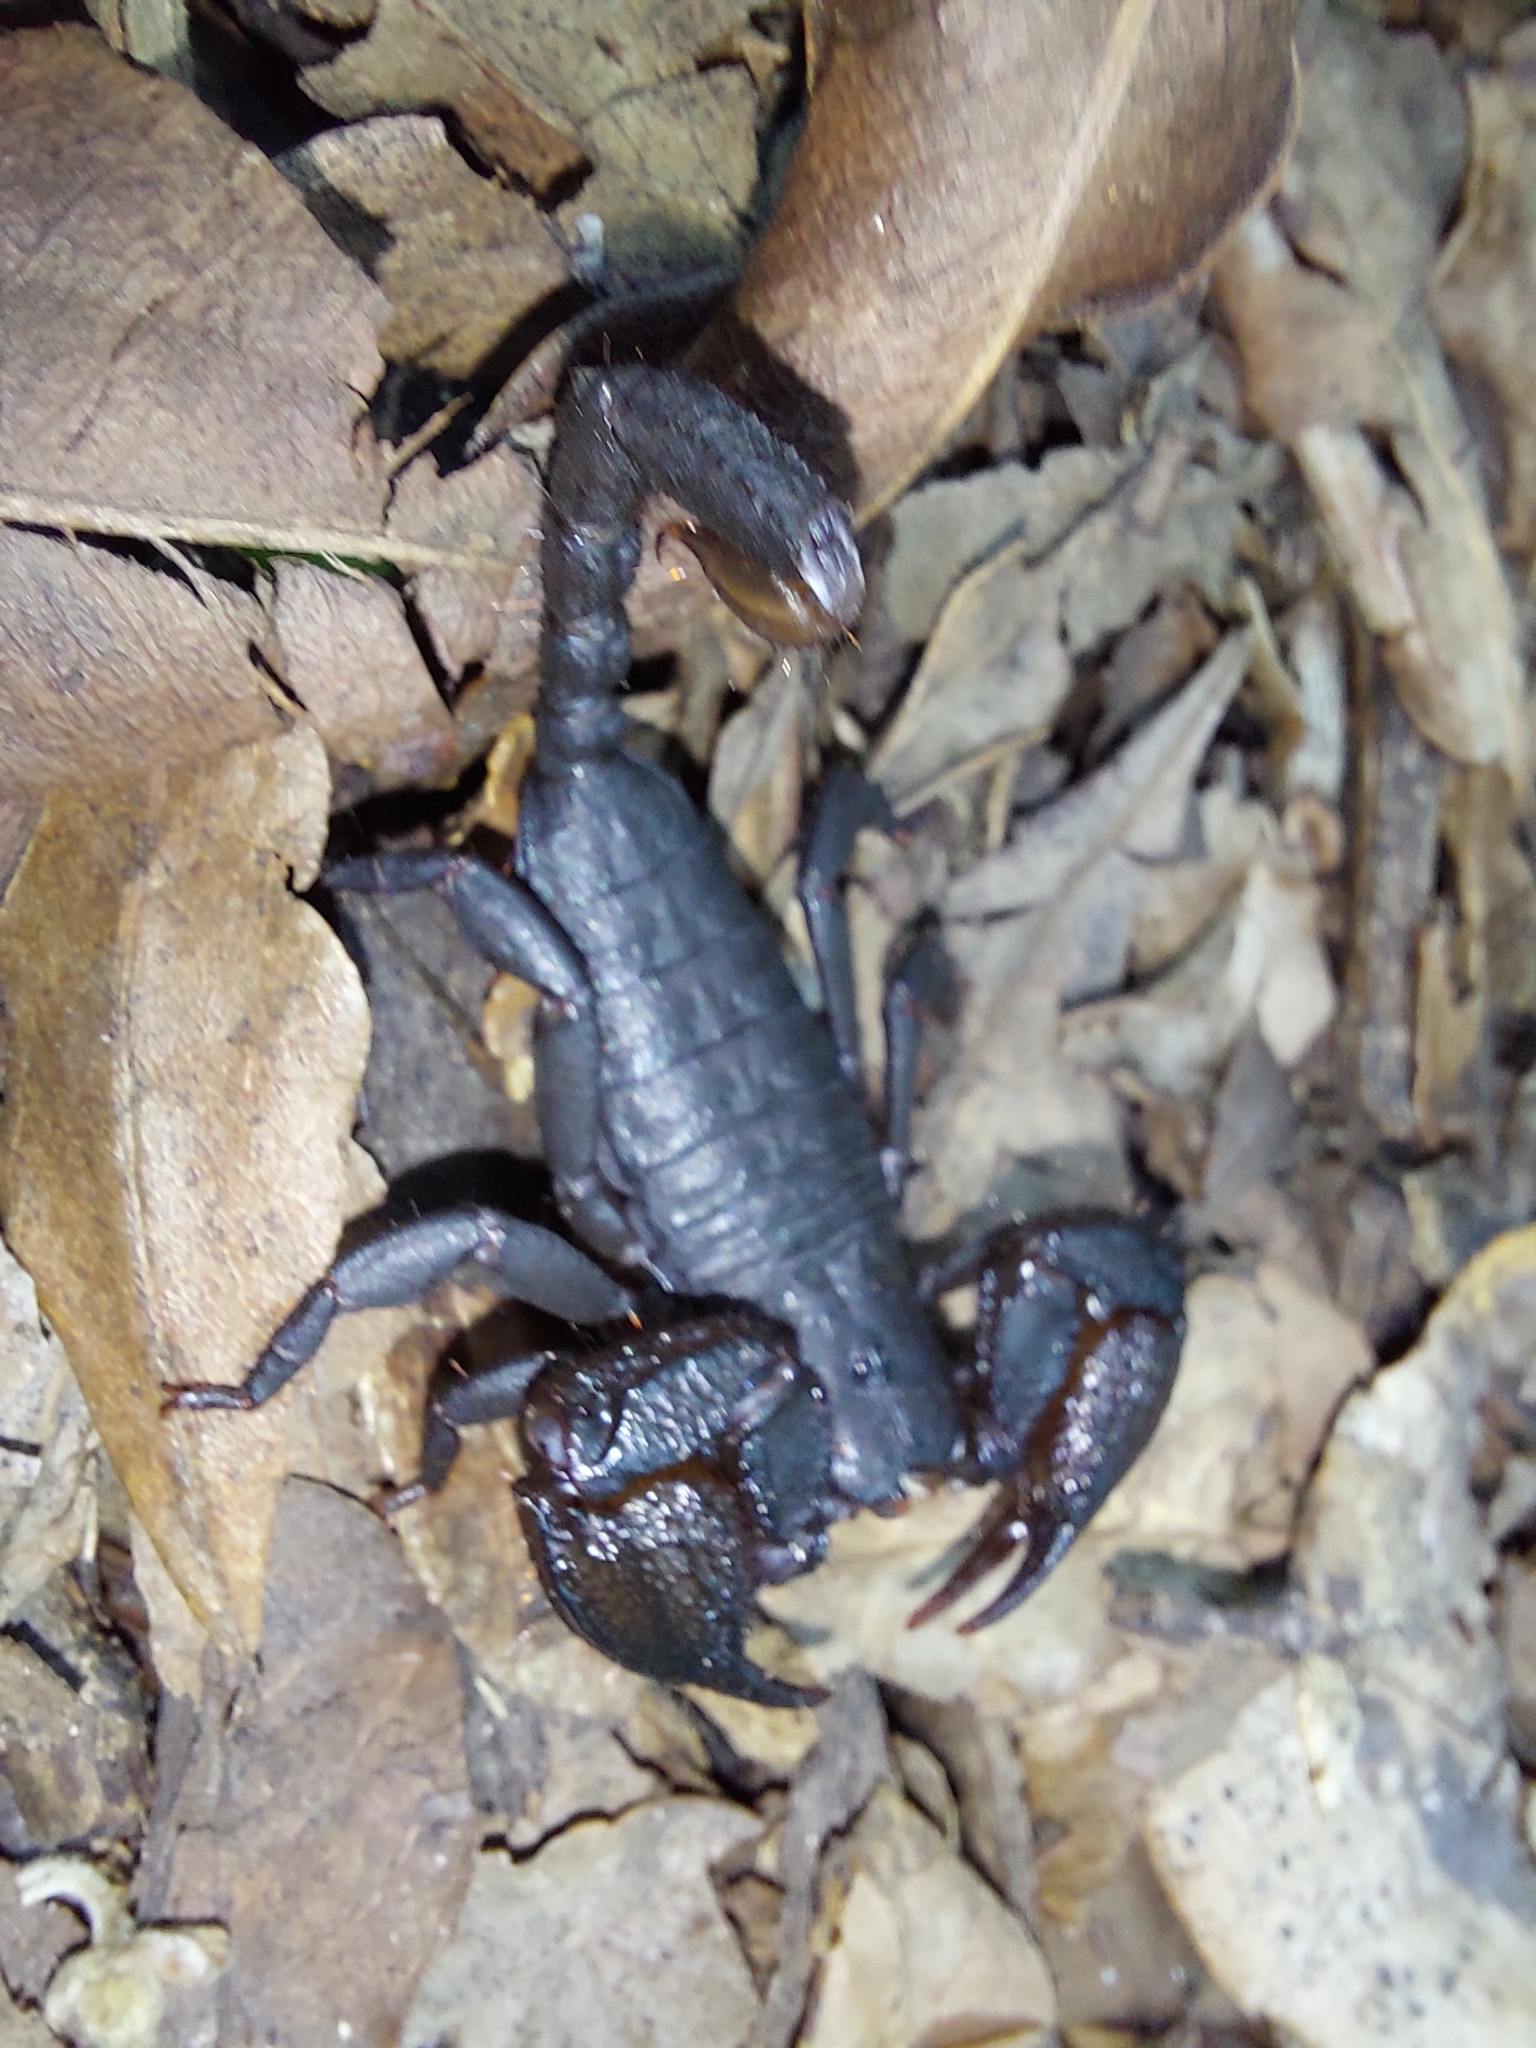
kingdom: Animalia
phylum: Arthropoda
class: Arachnida
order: Scorpiones
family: Hormuridae
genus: Opisthacanthus
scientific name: Opisthacanthus capensis
